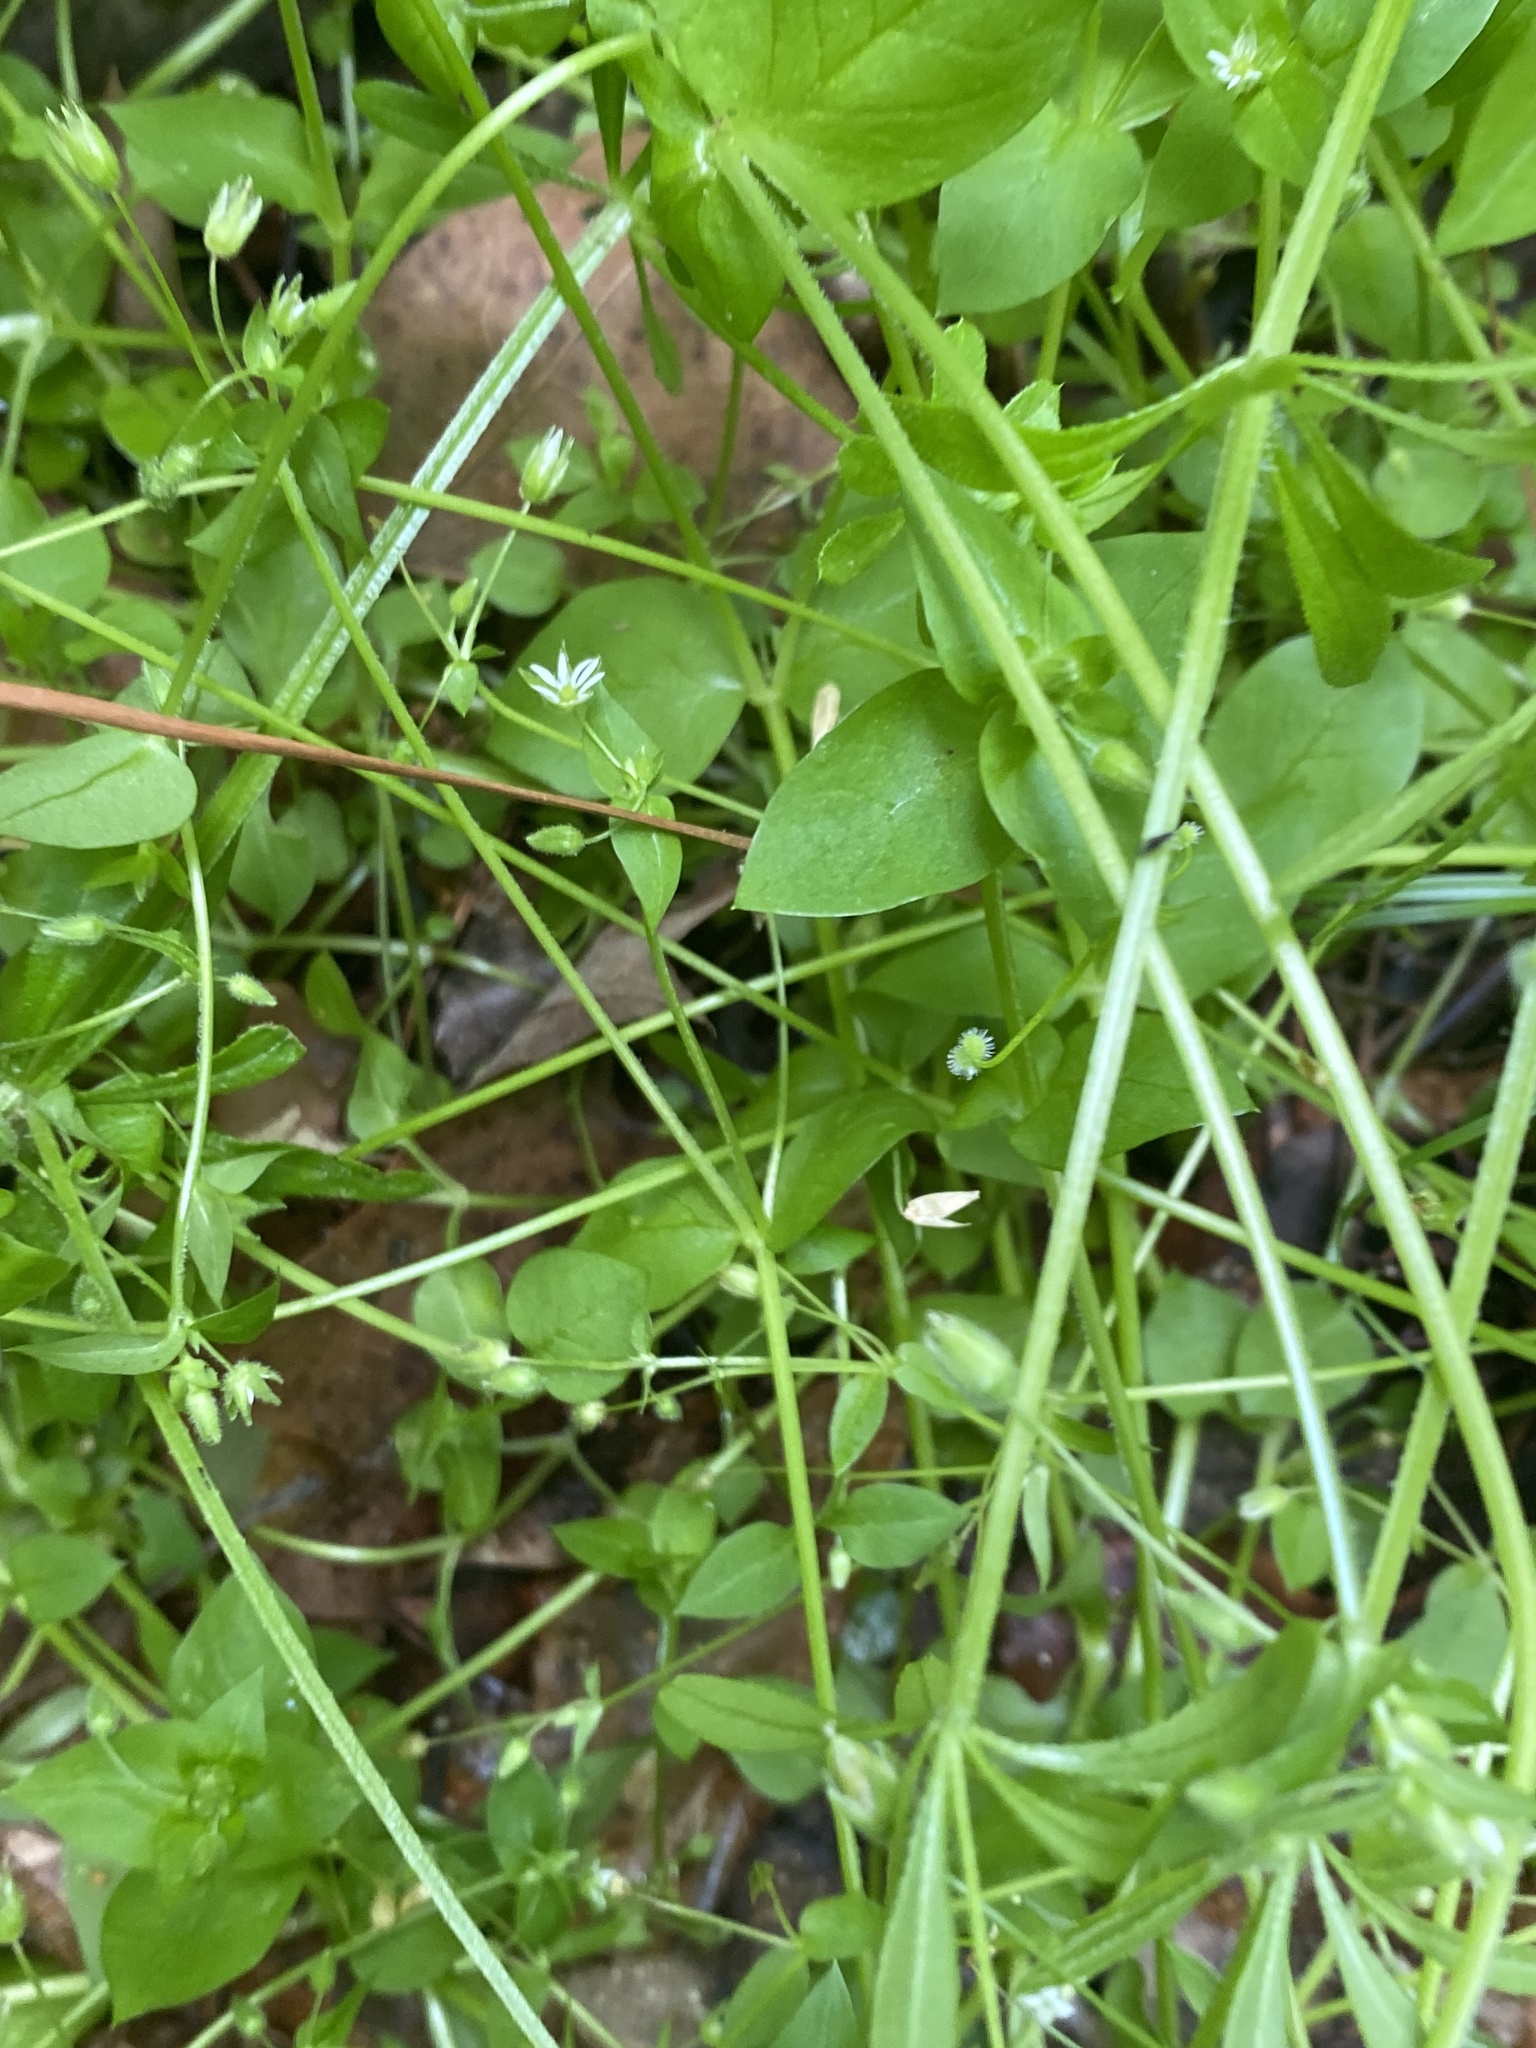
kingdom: Plantae
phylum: Tracheophyta
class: Magnoliopsida
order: Caryophyllales
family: Caryophyllaceae
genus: Stellaria
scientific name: Stellaria media
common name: Common chickweed
